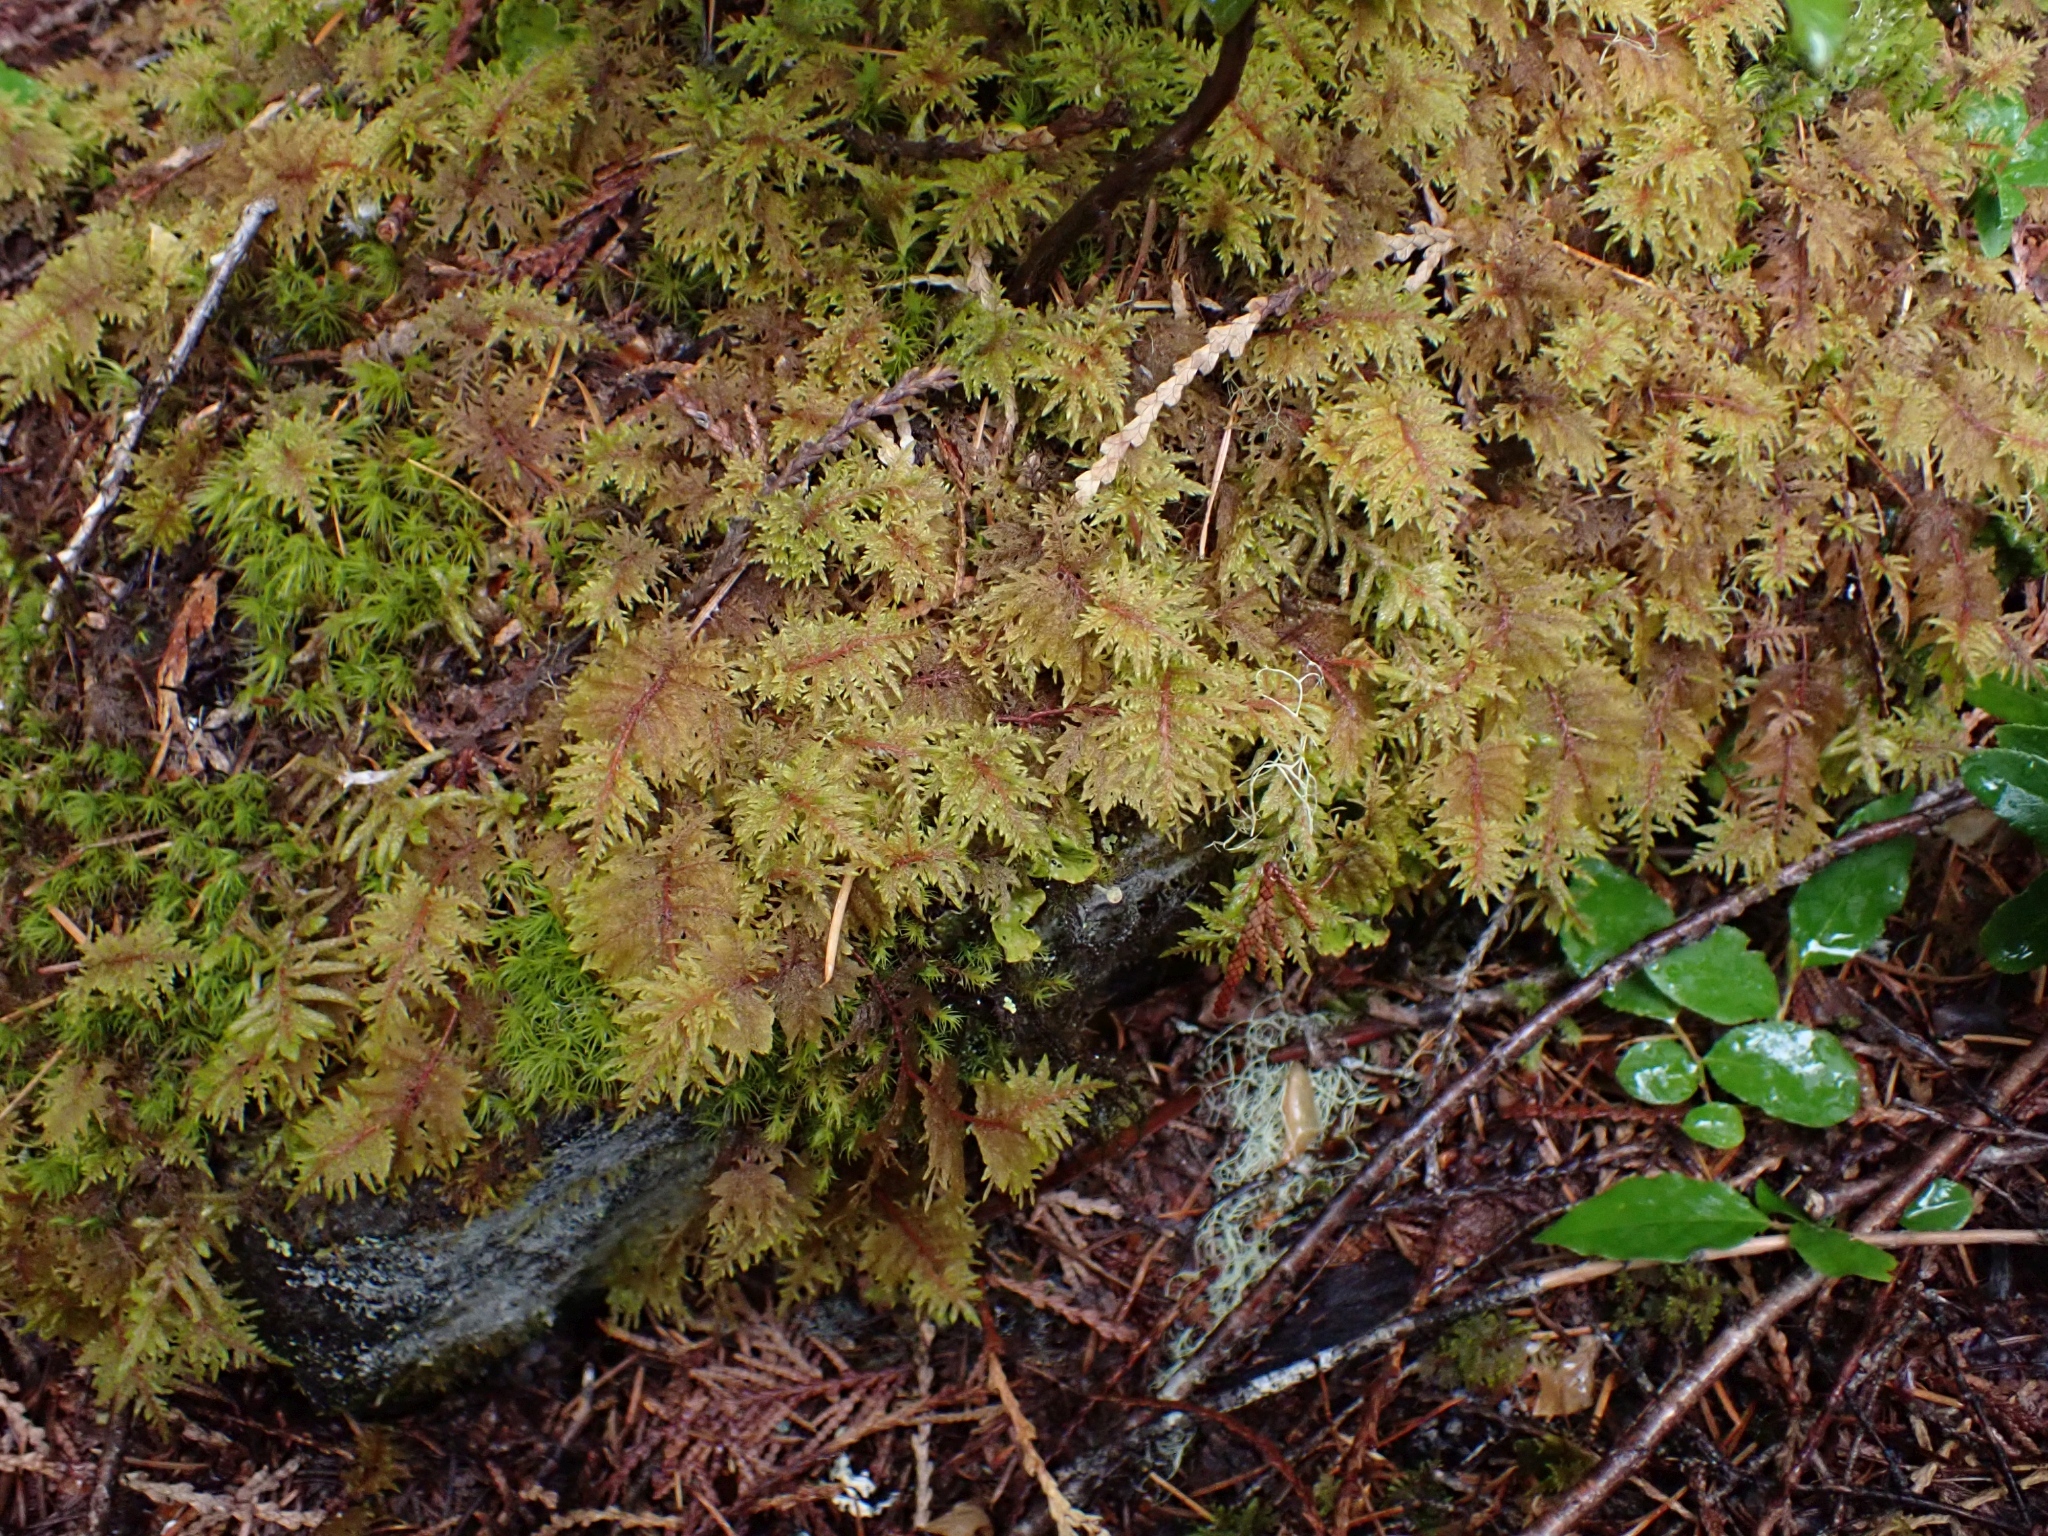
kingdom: Plantae
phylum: Bryophyta
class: Bryopsida
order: Hypnales
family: Hylocomiaceae
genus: Hylocomium
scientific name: Hylocomium splendens
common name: Stairstep moss
